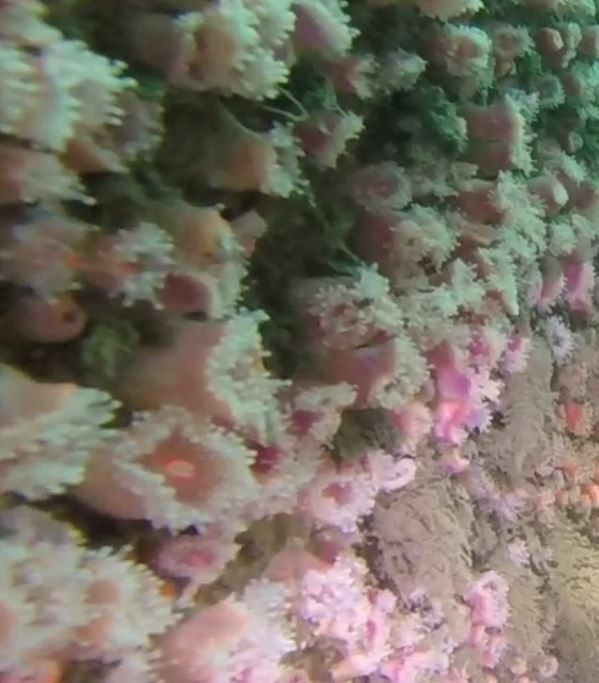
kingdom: Animalia
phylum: Cnidaria
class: Anthozoa
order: Corallimorpharia
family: Corallimorphidae
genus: Corynactis
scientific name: Corynactis californica
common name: Strawberry corallimorpharian
